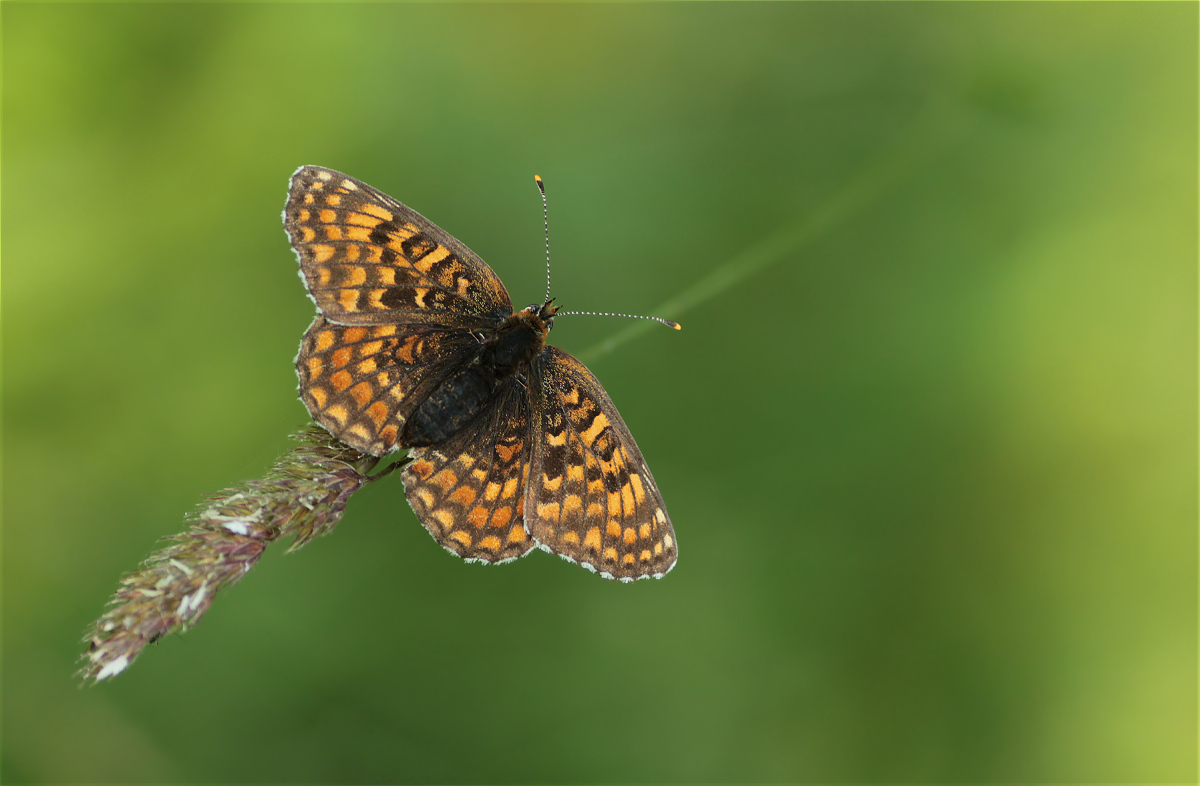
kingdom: Animalia
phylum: Arthropoda
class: Insecta
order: Lepidoptera
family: Nymphalidae
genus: Melitaea
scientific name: Melitaea phoebe
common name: Knapweed fritillary
